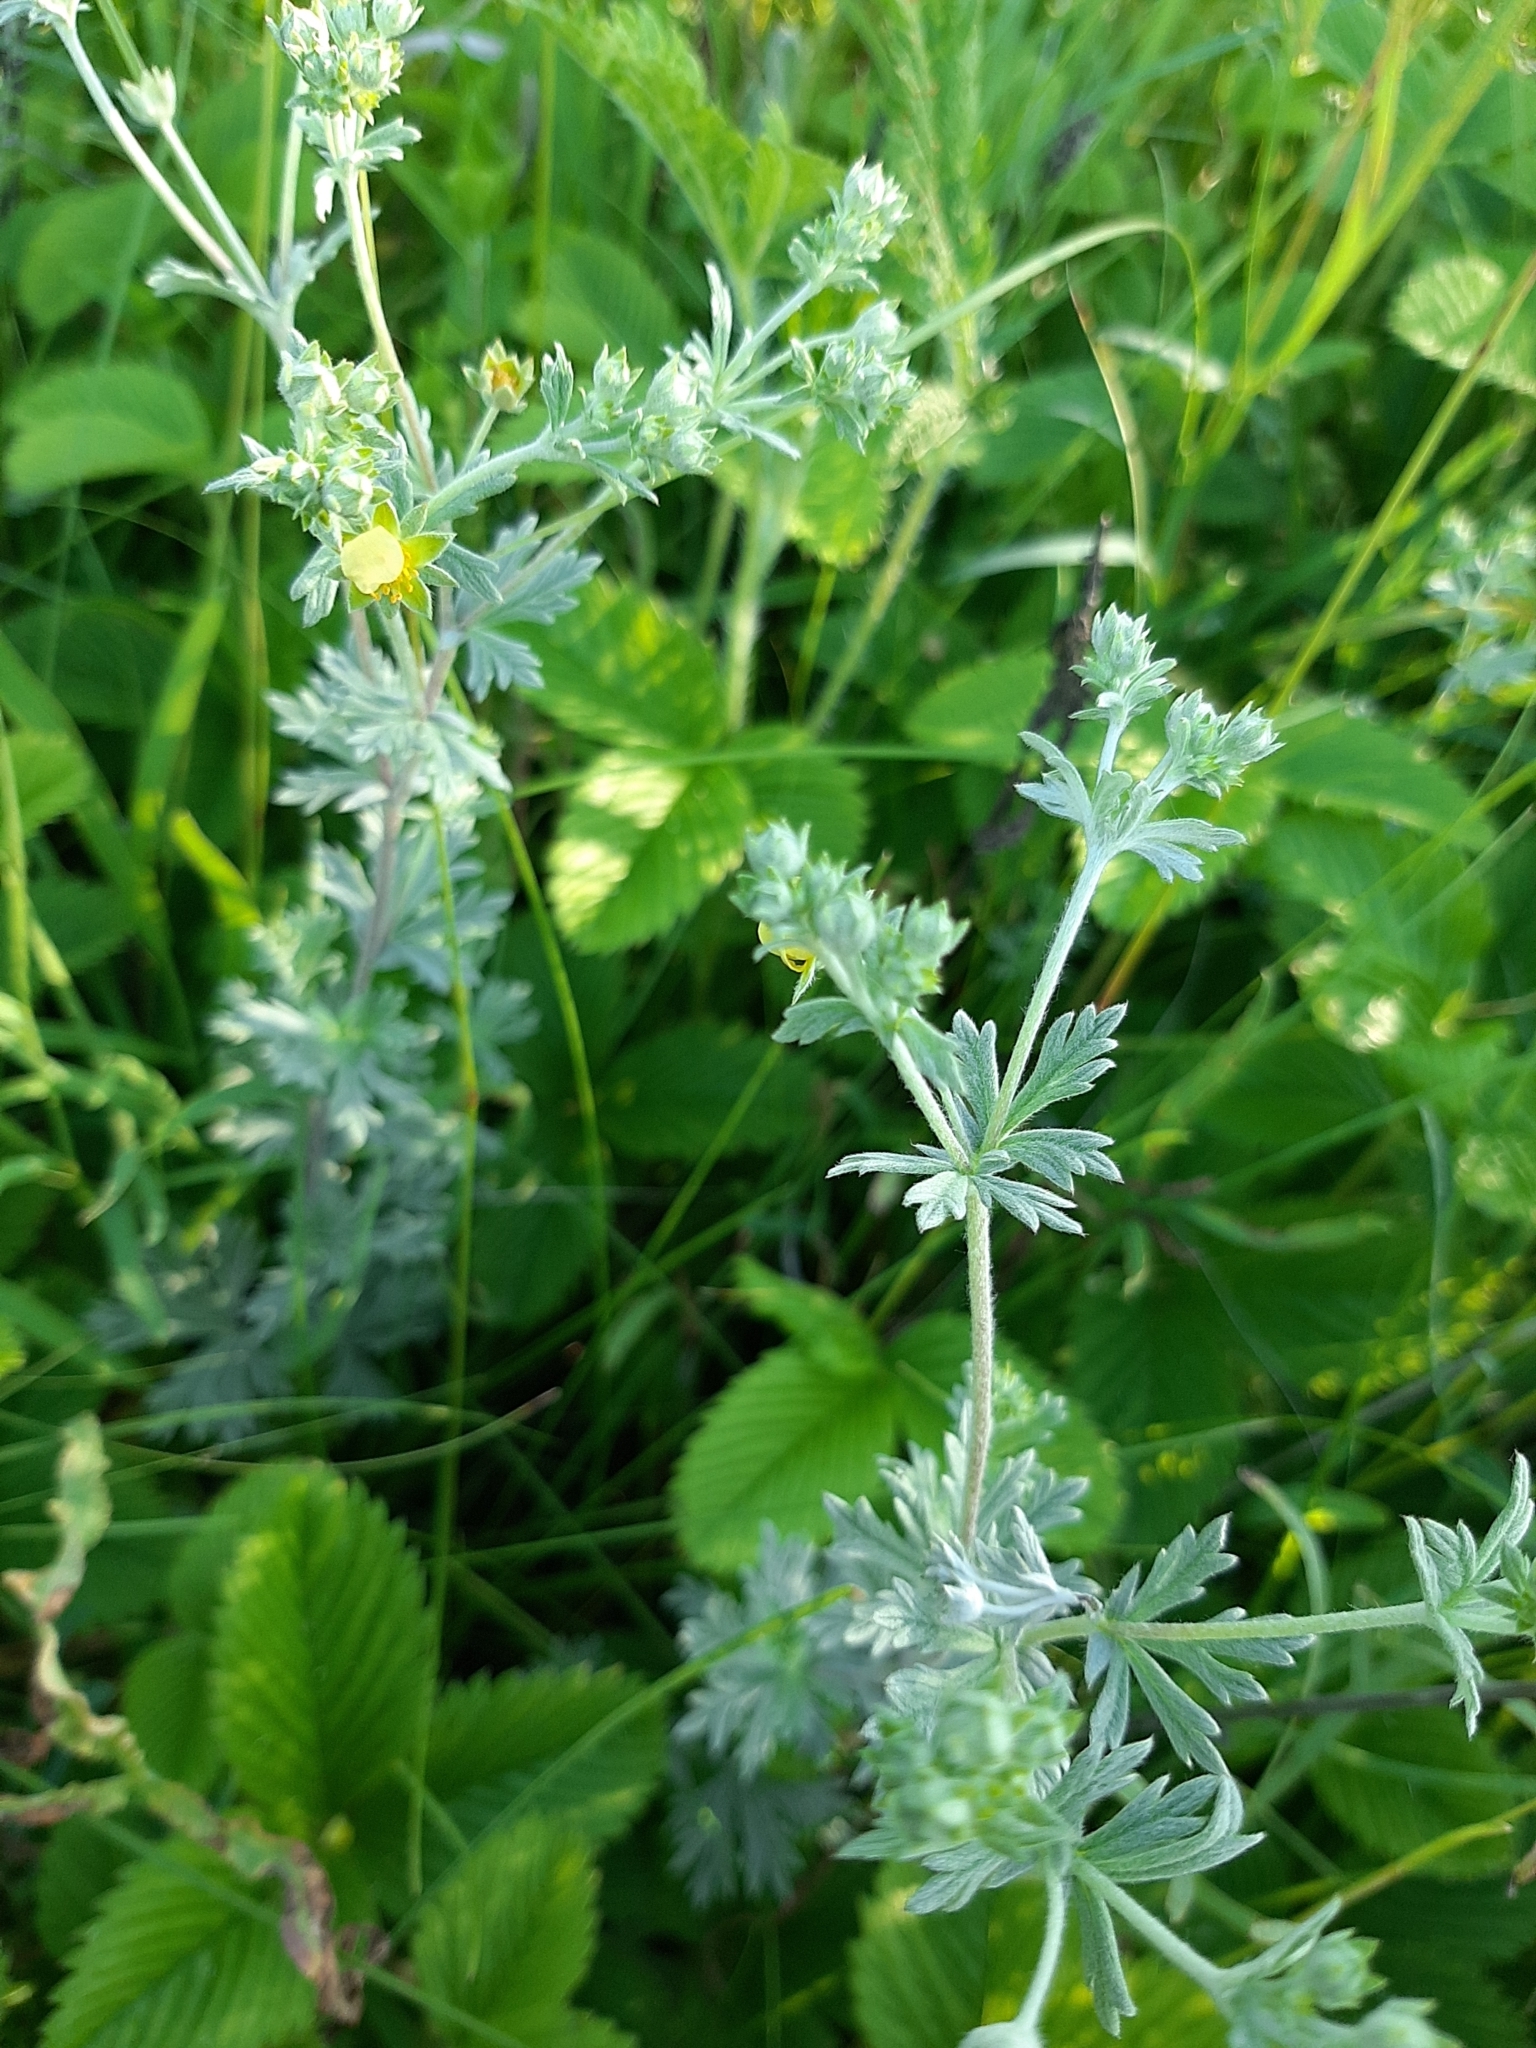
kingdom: Plantae
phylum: Tracheophyta
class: Magnoliopsida
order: Rosales
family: Rosaceae
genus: Potentilla
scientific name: Potentilla argentea
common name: Hoary cinquefoil
